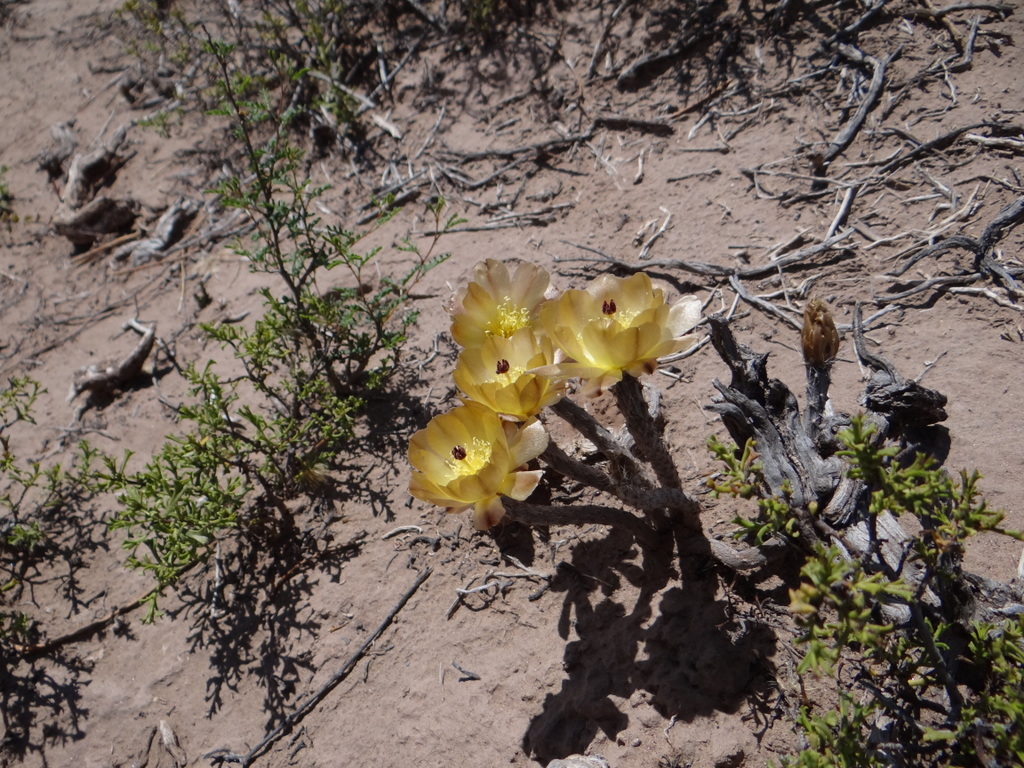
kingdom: Plantae
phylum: Tracheophyta
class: Magnoliopsida
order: Caryophyllales
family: Cactaceae
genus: Pterocactus
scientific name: Pterocactus tuberosus
